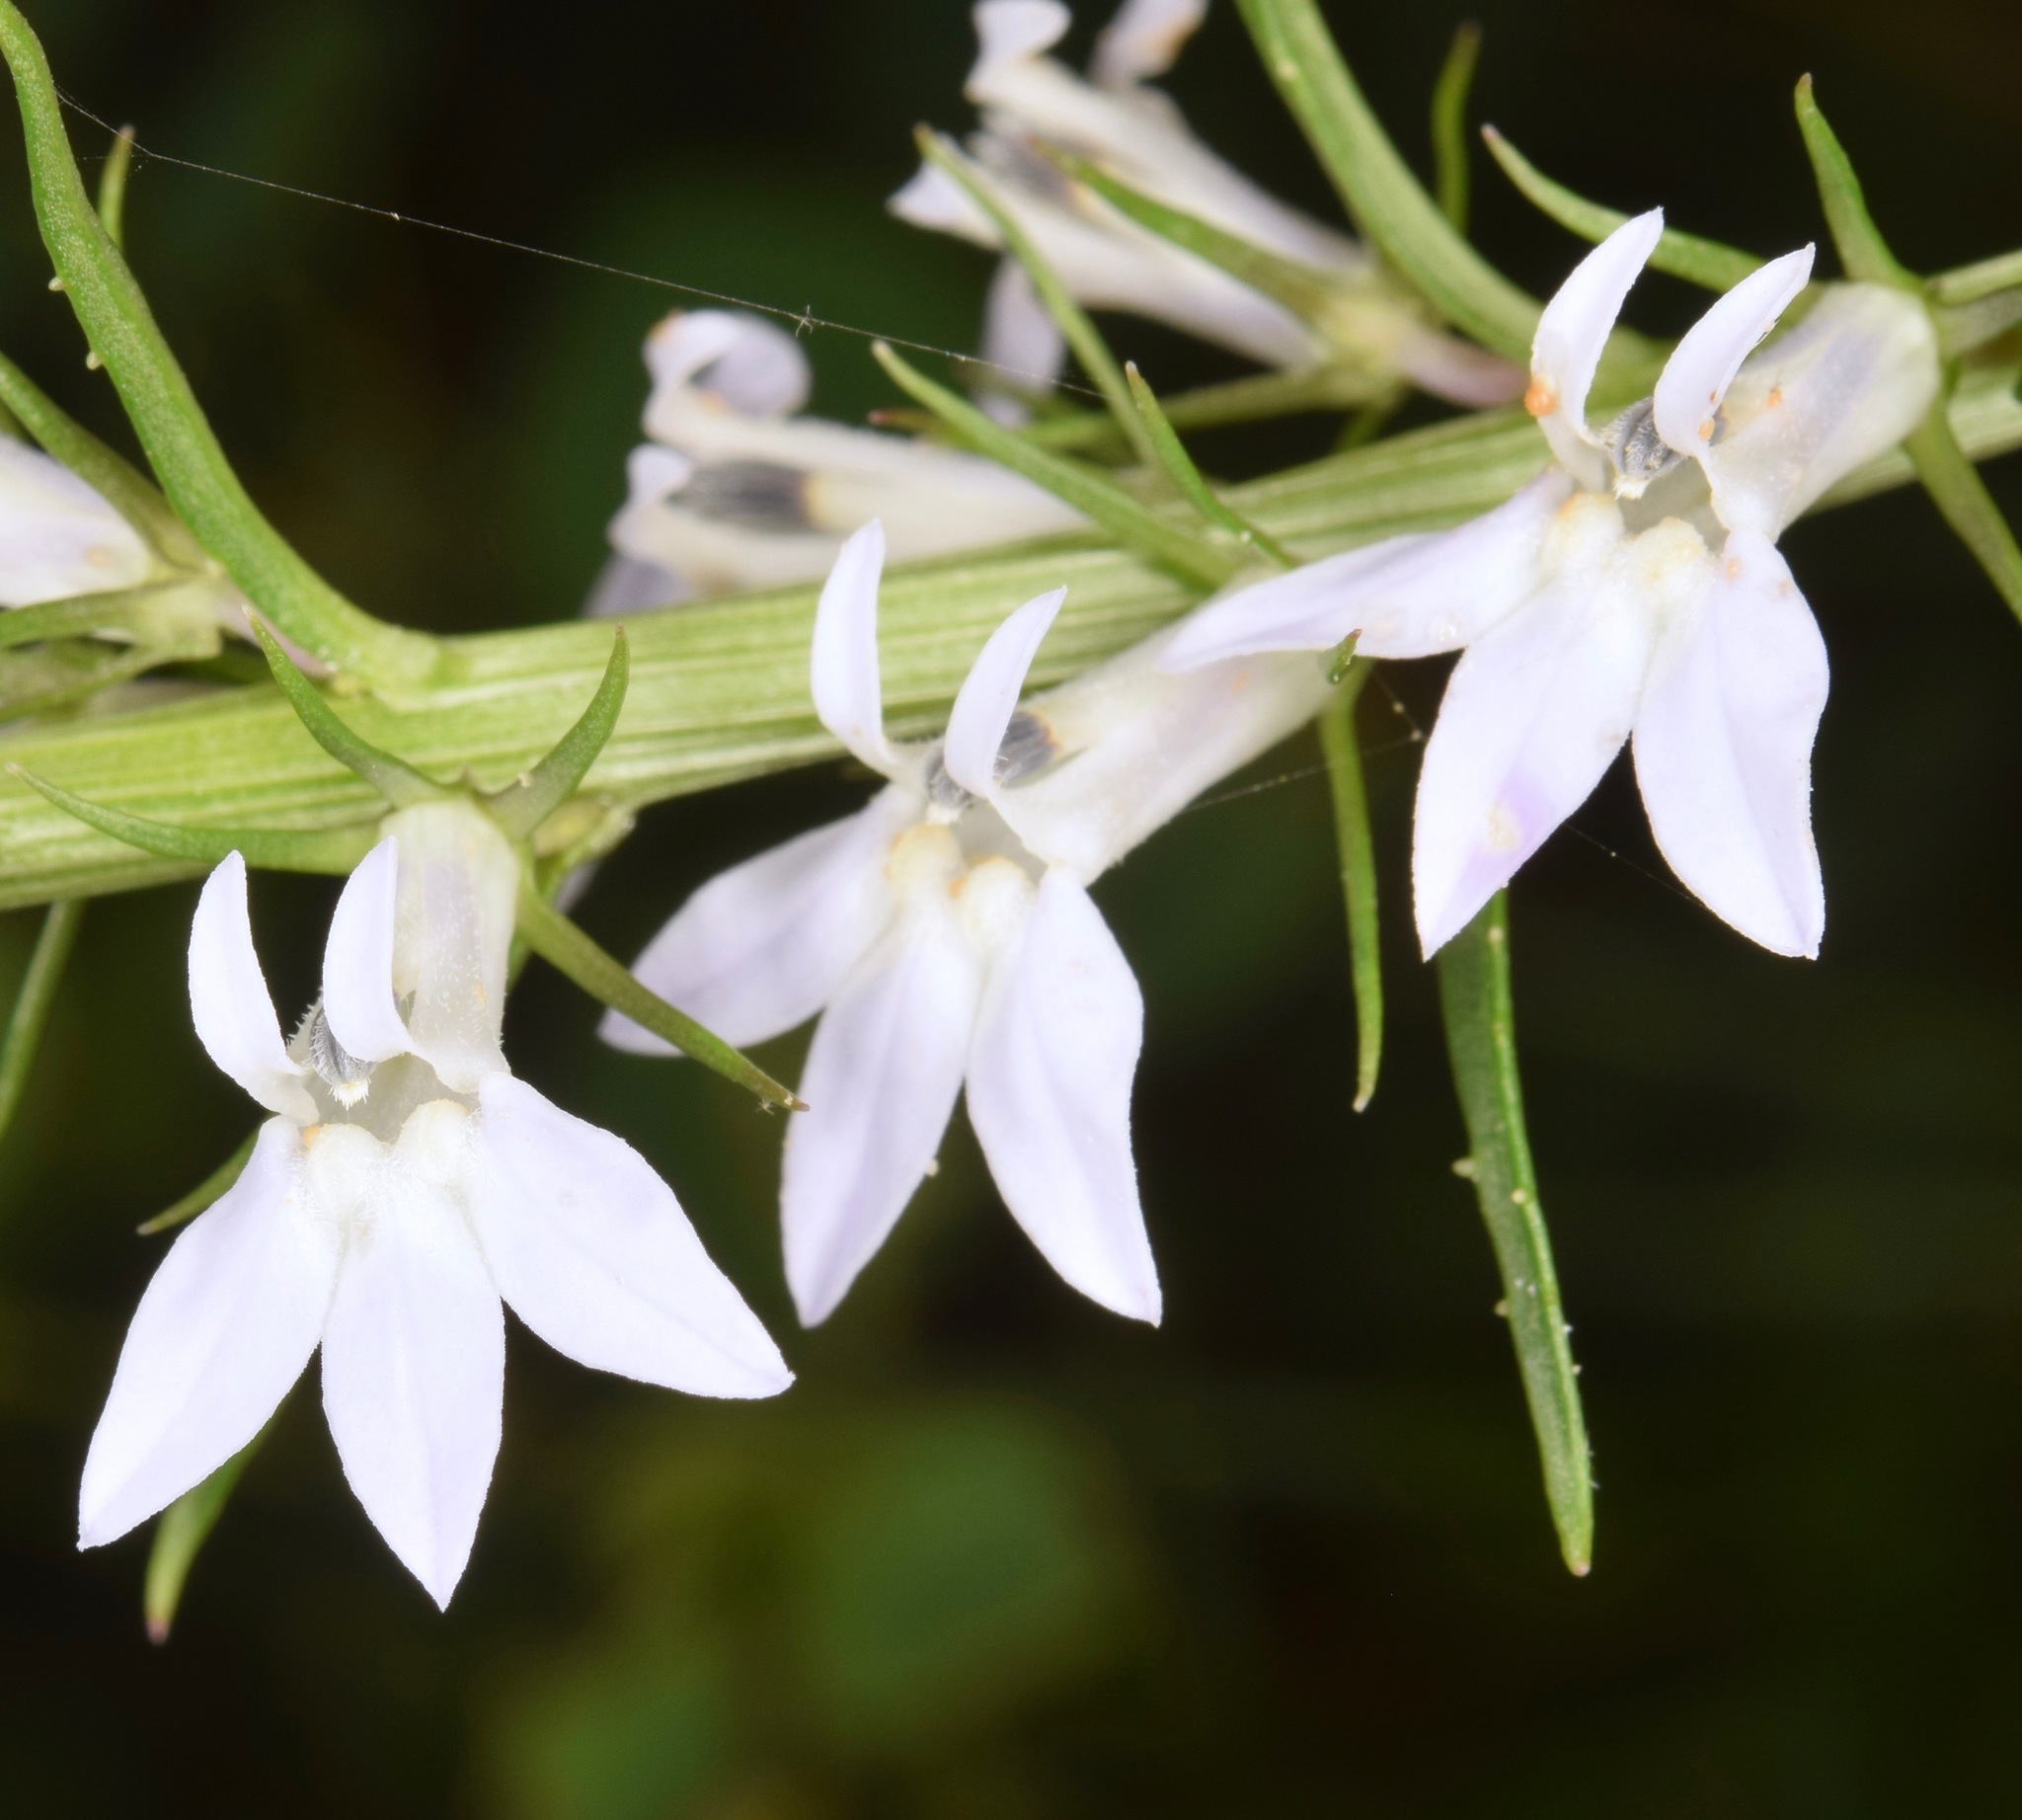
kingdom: Plantae
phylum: Tracheophyta
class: Magnoliopsida
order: Asterales
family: Campanulaceae
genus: Lobelia
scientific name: Lobelia spicata
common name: Pale-spike lobelia
